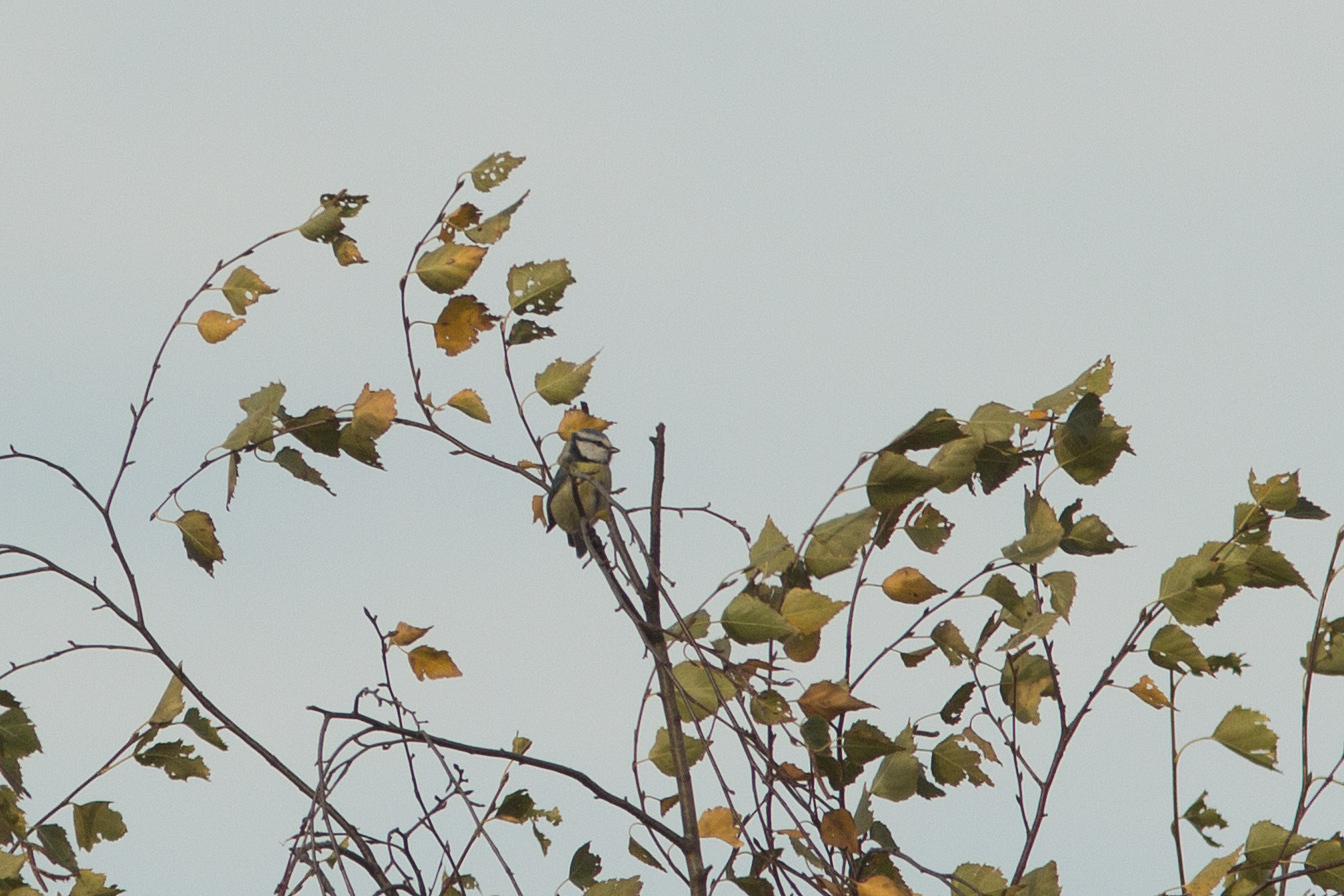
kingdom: Animalia
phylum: Chordata
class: Aves
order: Passeriformes
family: Paridae
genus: Cyanistes
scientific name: Cyanistes caeruleus
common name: Eurasian blue tit
